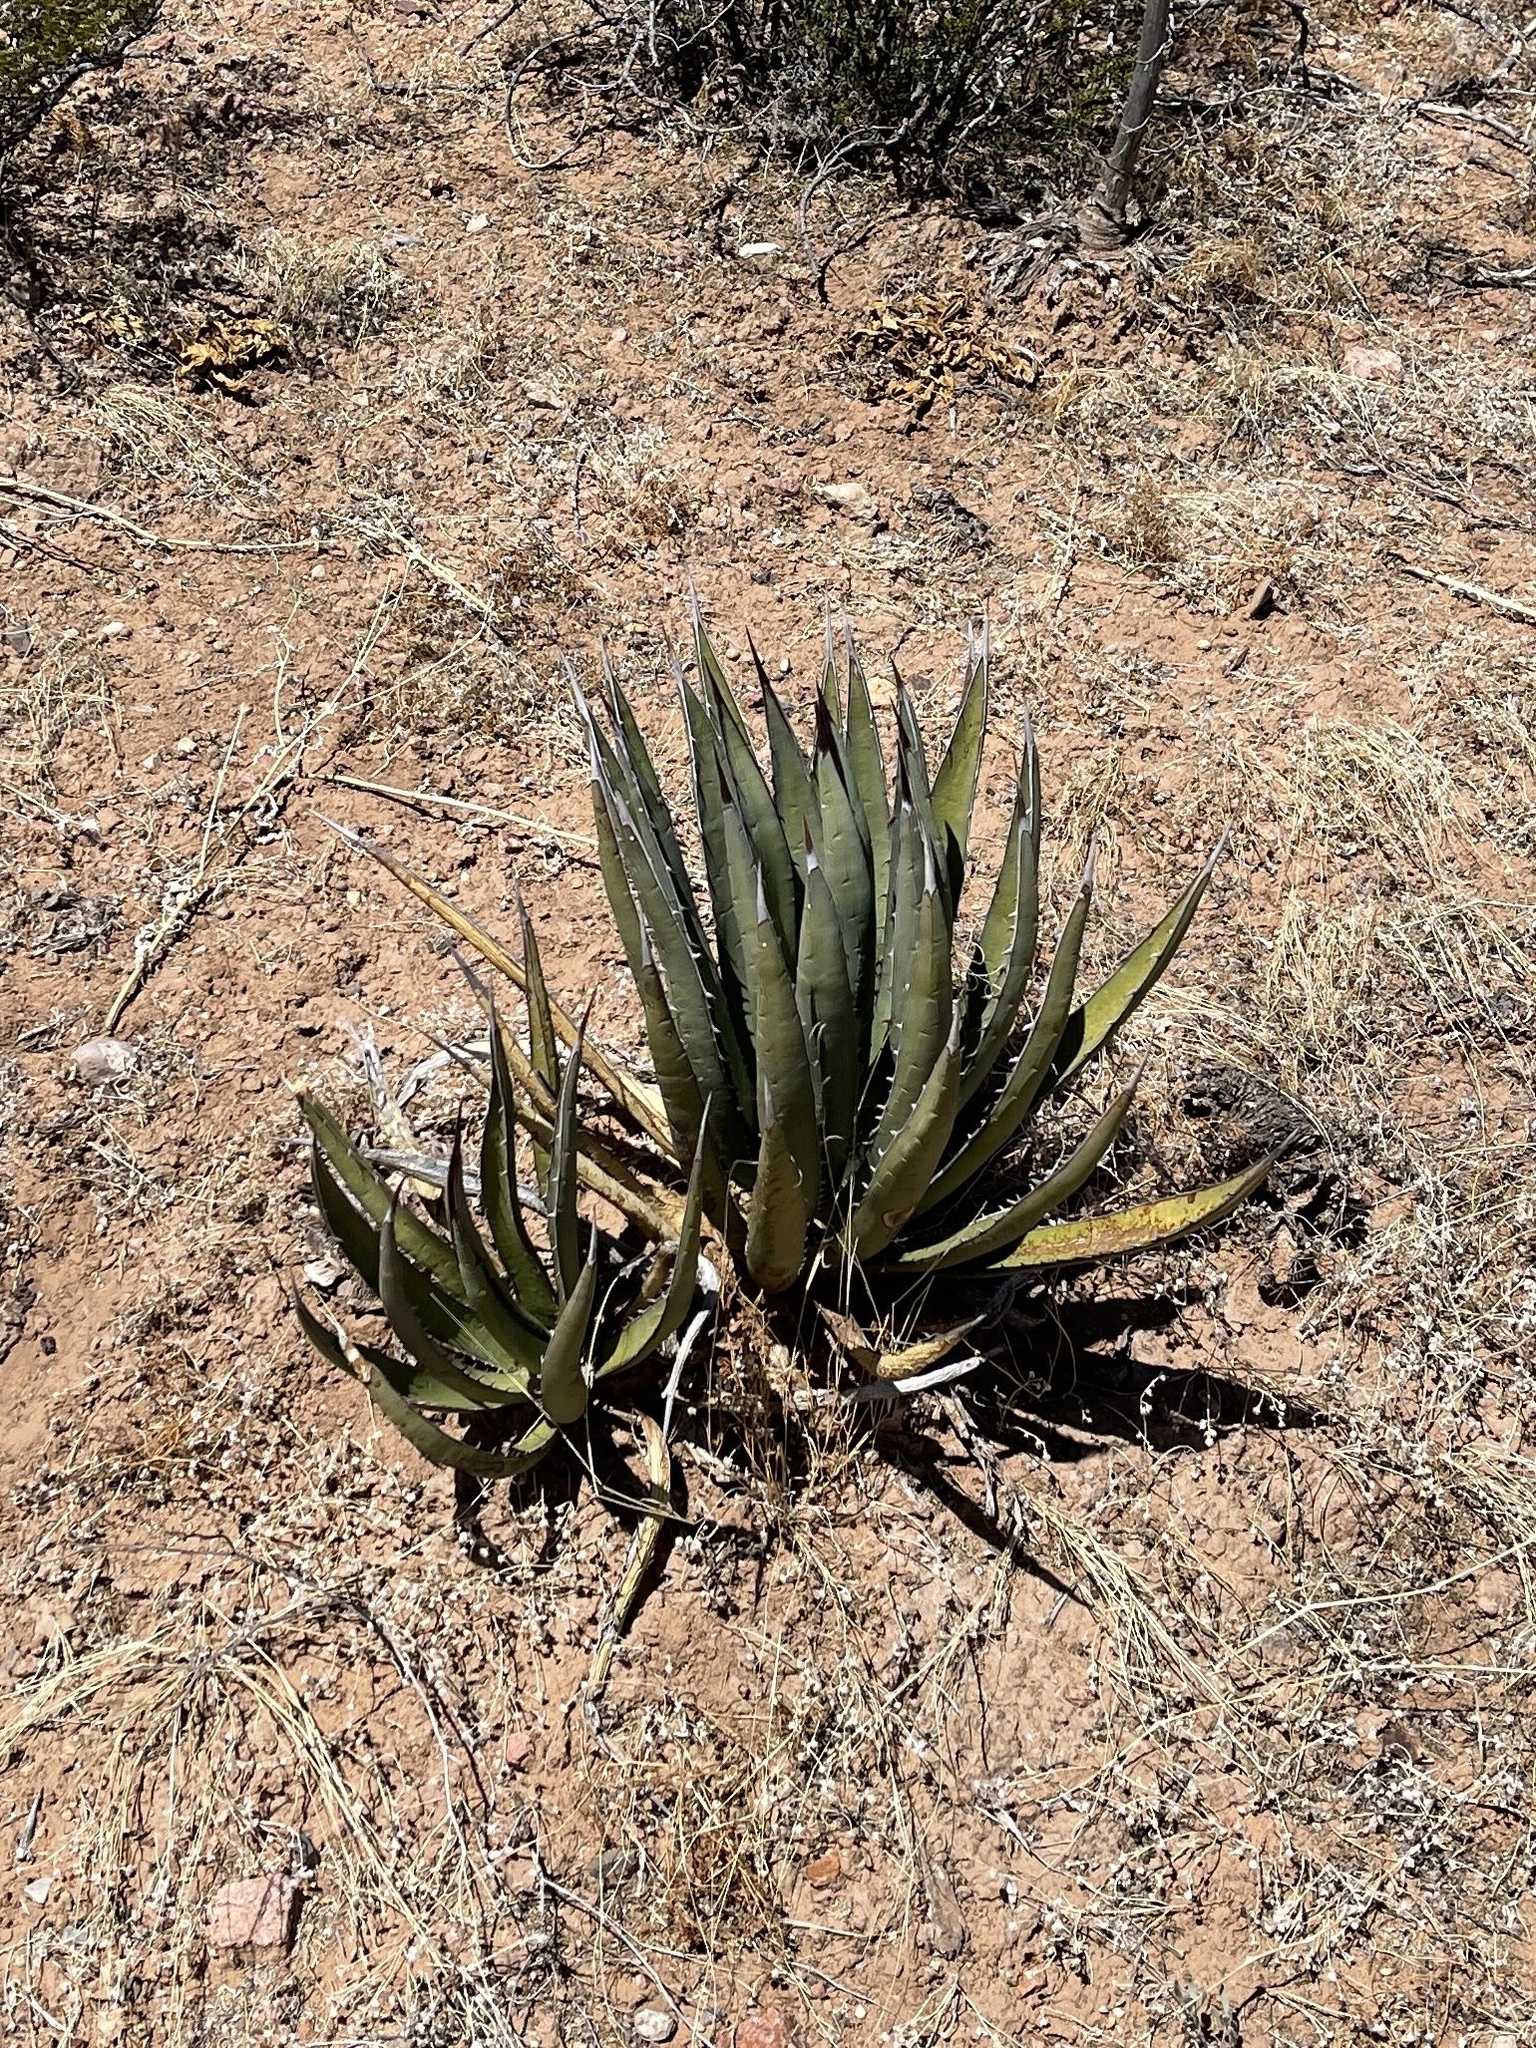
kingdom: Plantae
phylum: Tracheophyta
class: Liliopsida
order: Asparagales
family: Asparagaceae
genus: Agave
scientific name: Agave lechuguilla
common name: Lecheguilla agave
